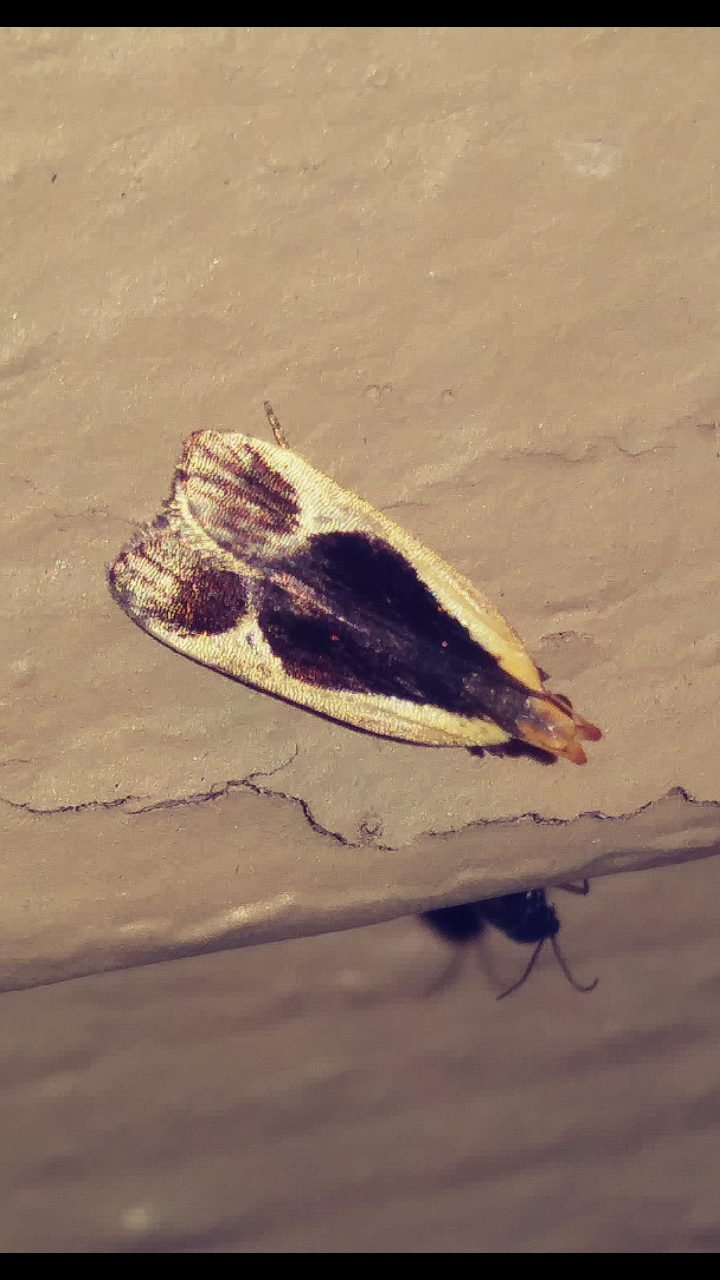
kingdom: Animalia
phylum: Arthropoda
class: Insecta
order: Lepidoptera
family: Gelechiidae
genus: Dichomeris
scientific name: Dichomeris flavocostella
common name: Cream-edged dichomeris moth
